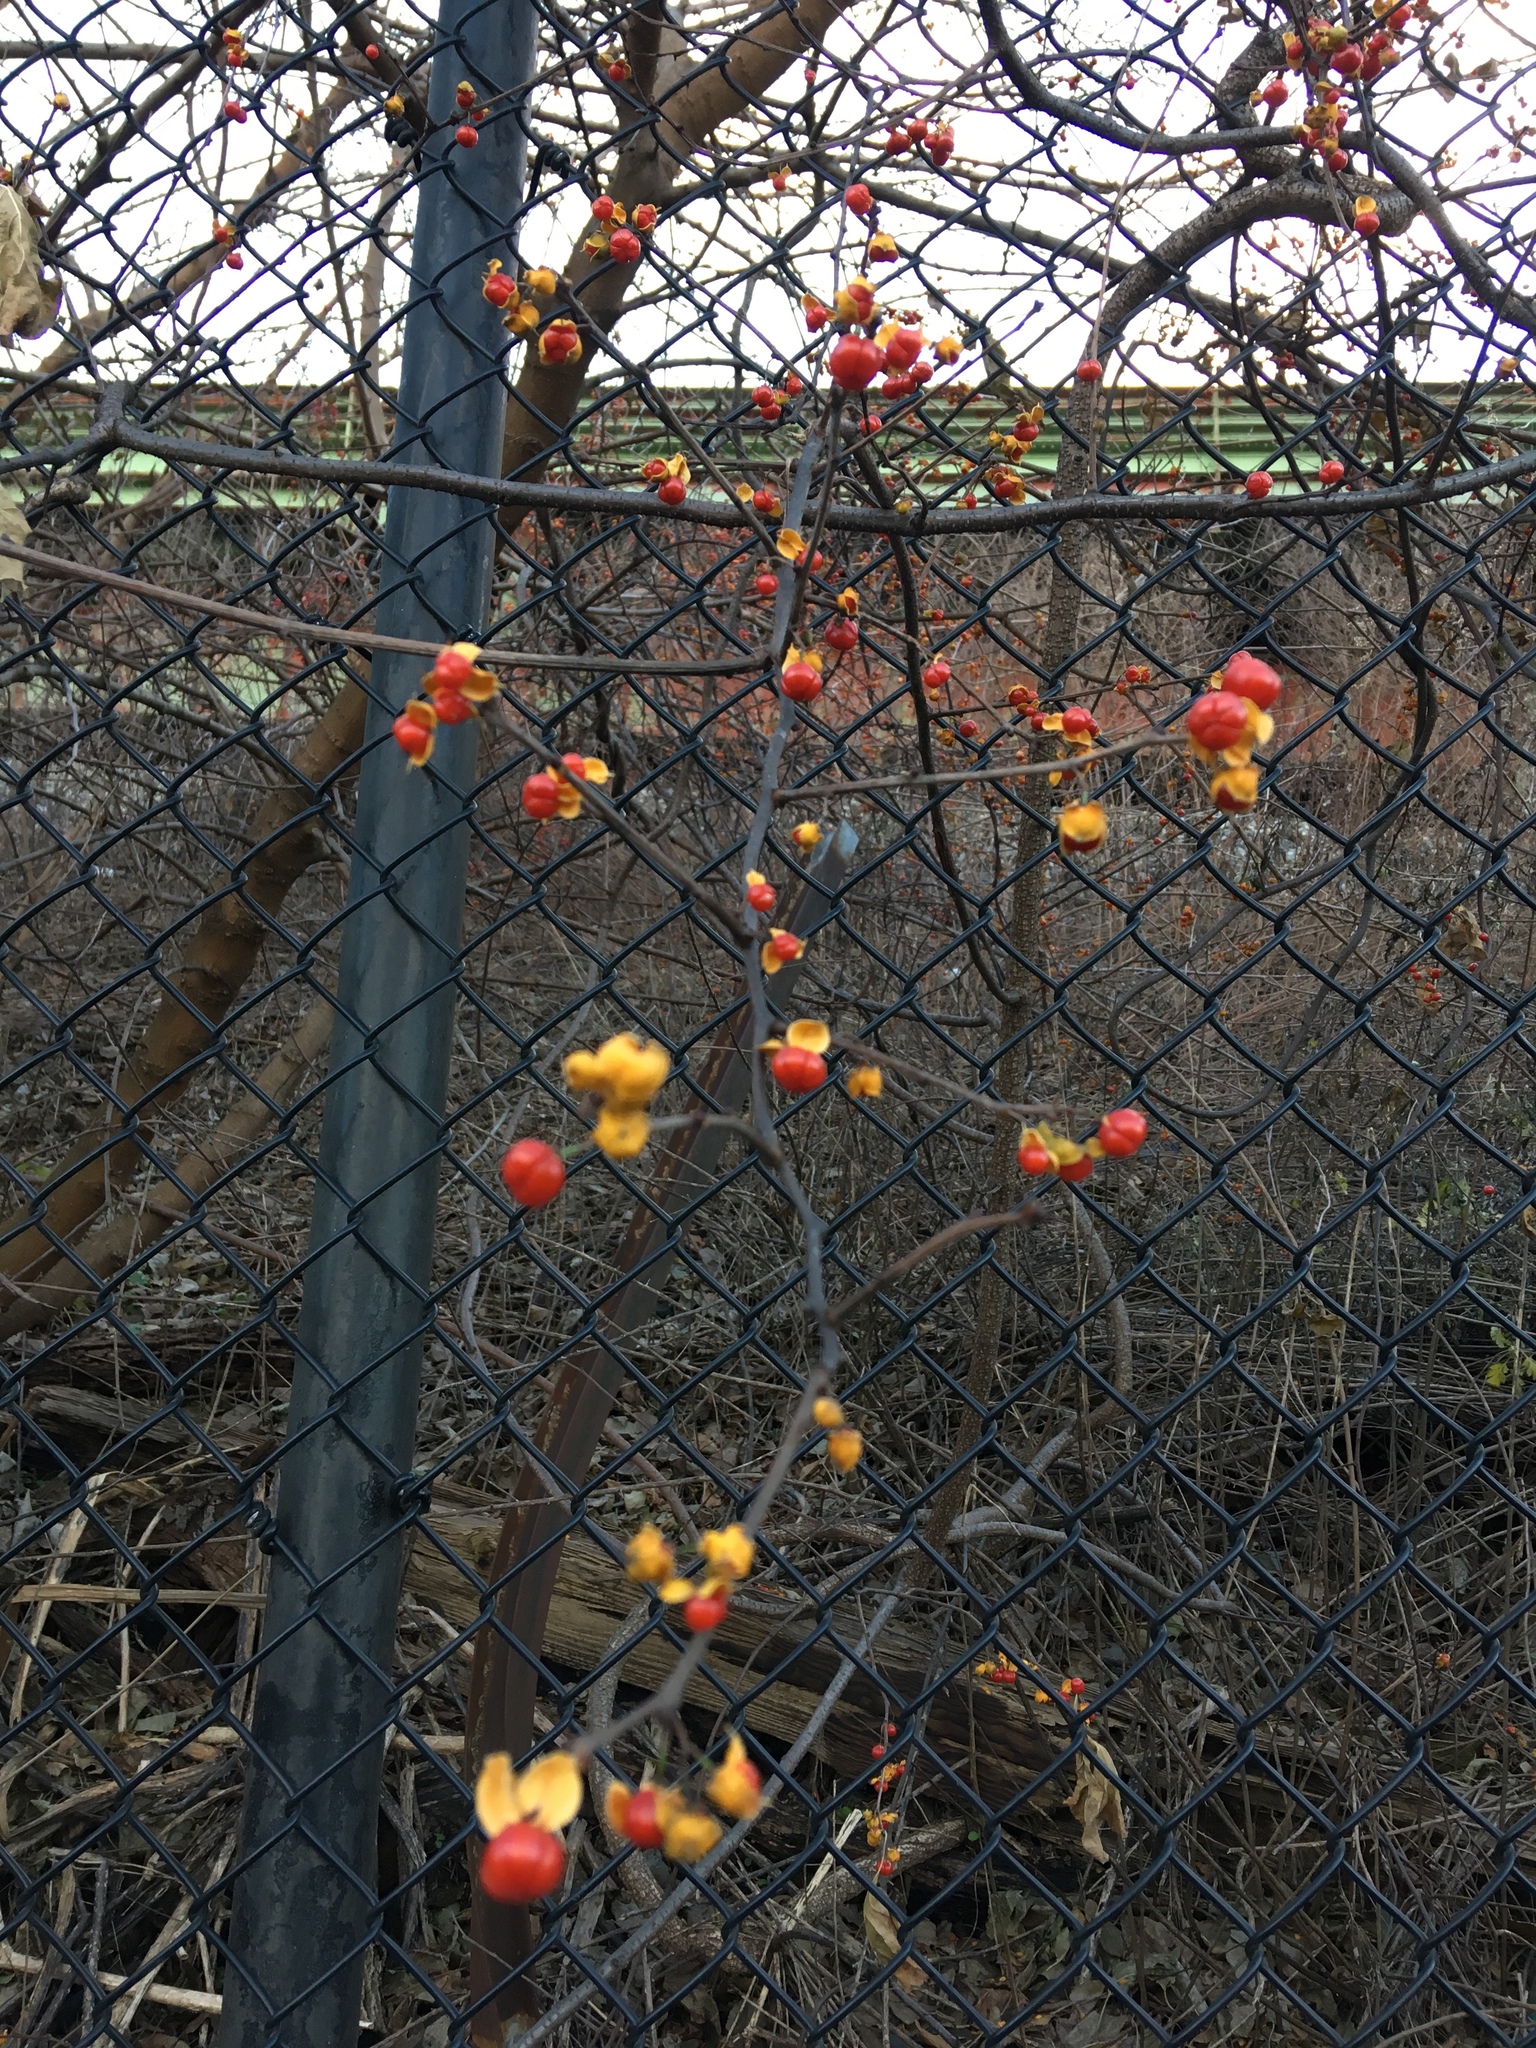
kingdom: Plantae
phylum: Tracheophyta
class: Magnoliopsida
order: Celastrales
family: Celastraceae
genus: Celastrus
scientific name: Celastrus orbiculatus
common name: Oriental bittersweet
